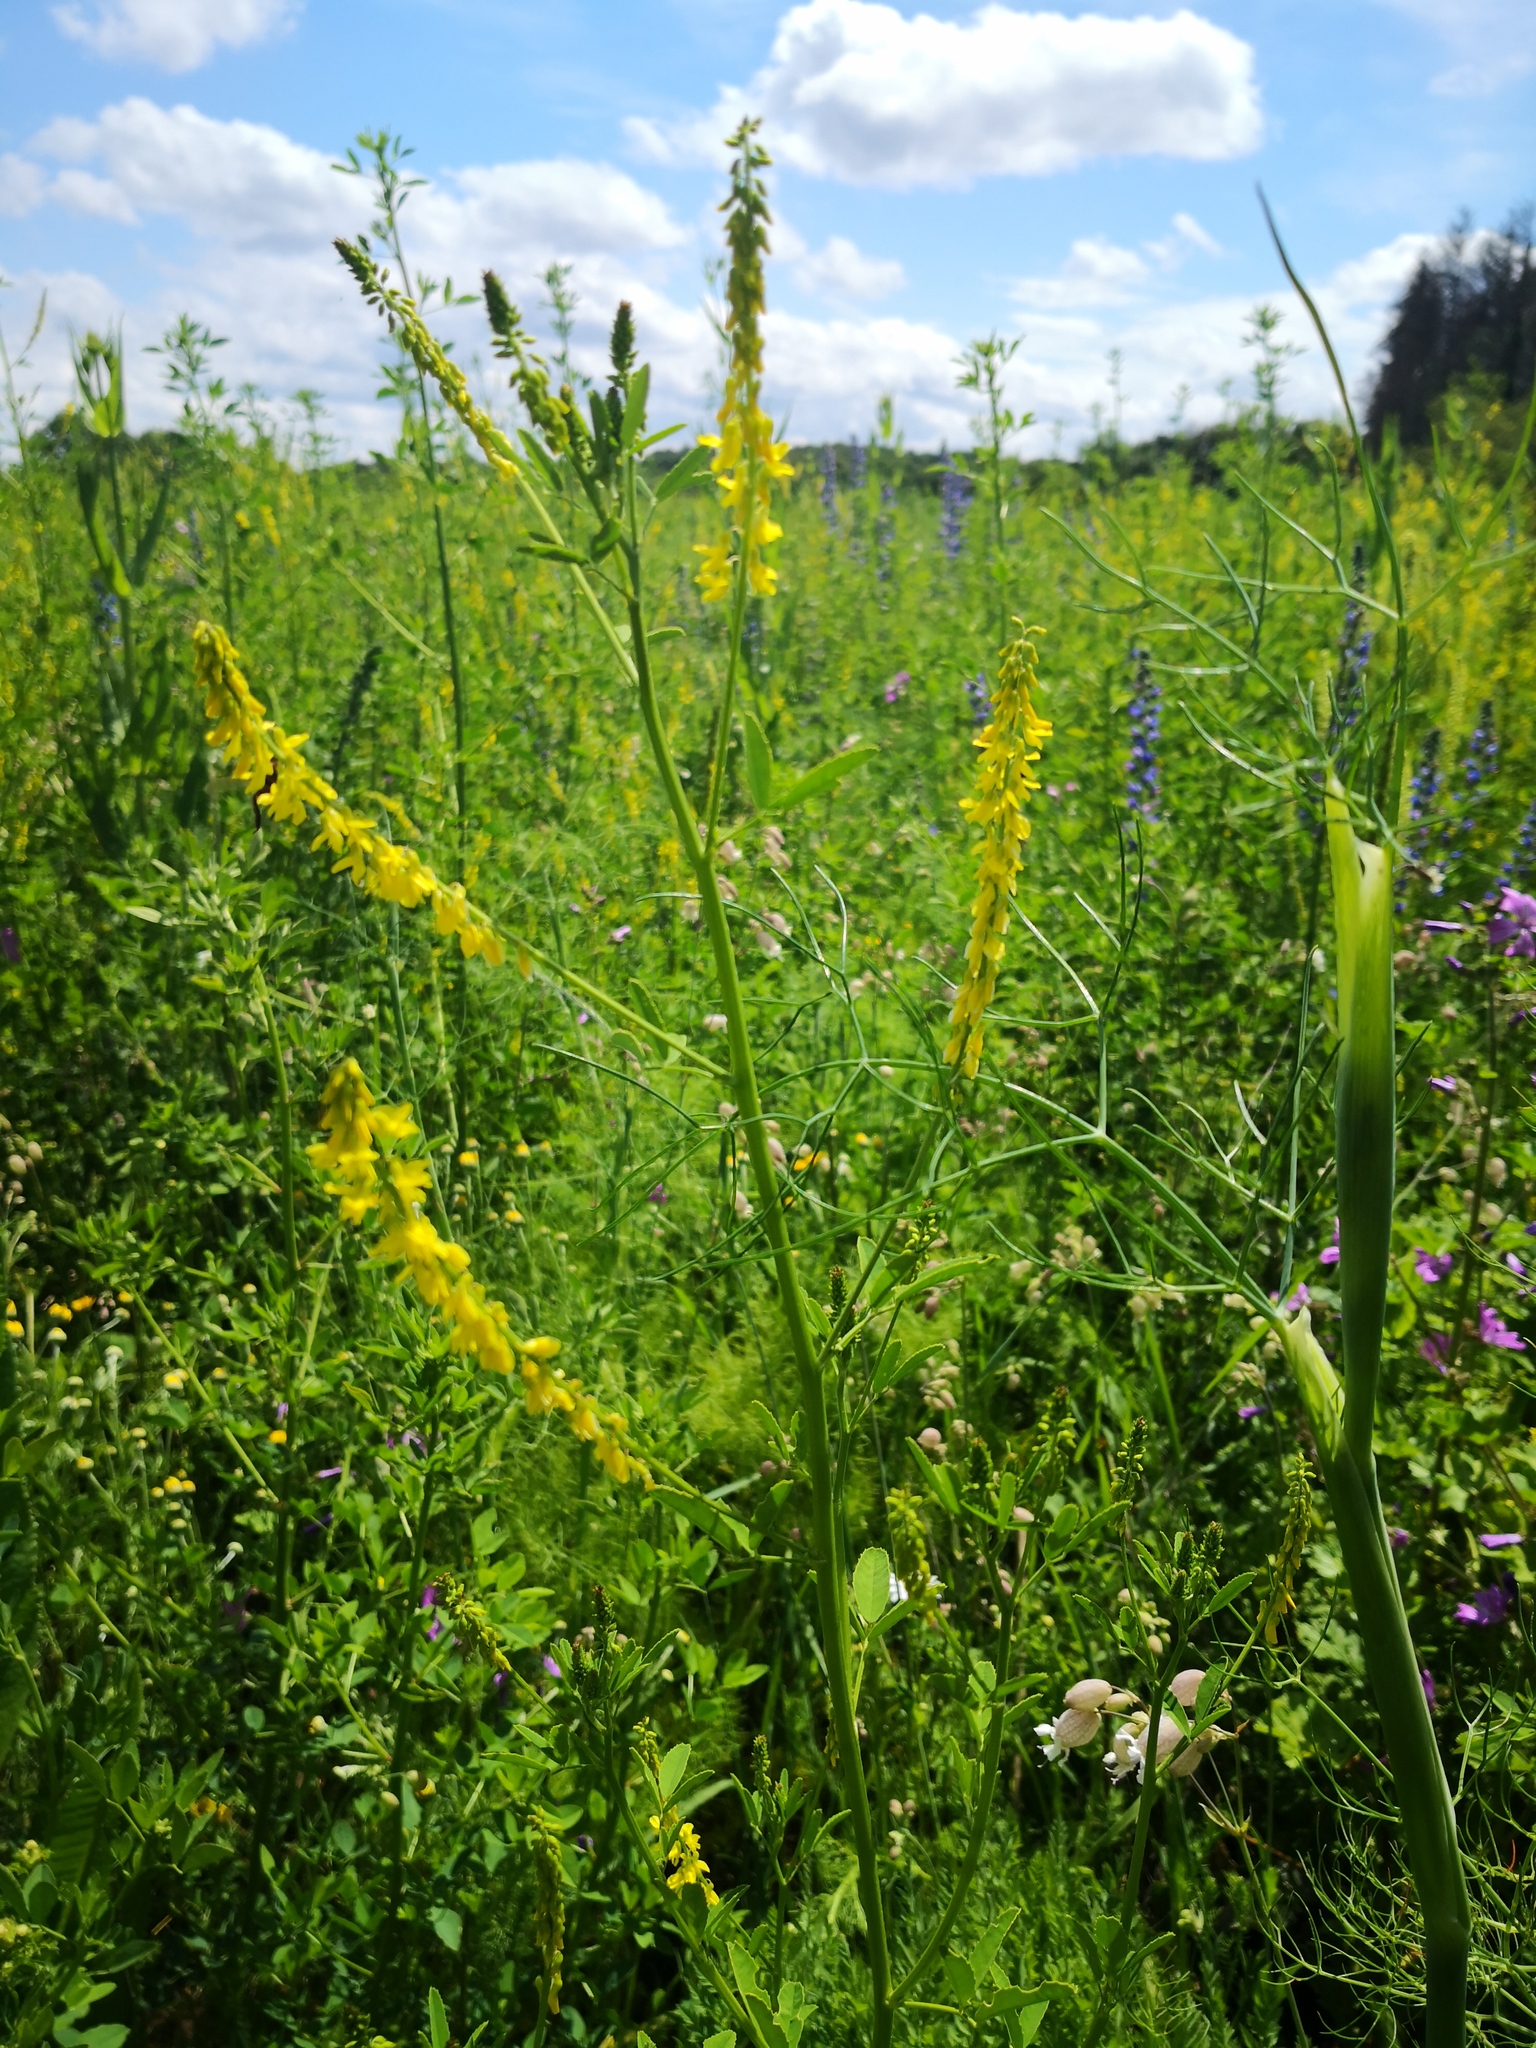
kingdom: Plantae
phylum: Tracheophyta
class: Magnoliopsida
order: Fabales
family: Fabaceae
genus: Melilotus
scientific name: Melilotus officinalis
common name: Sweetclover
